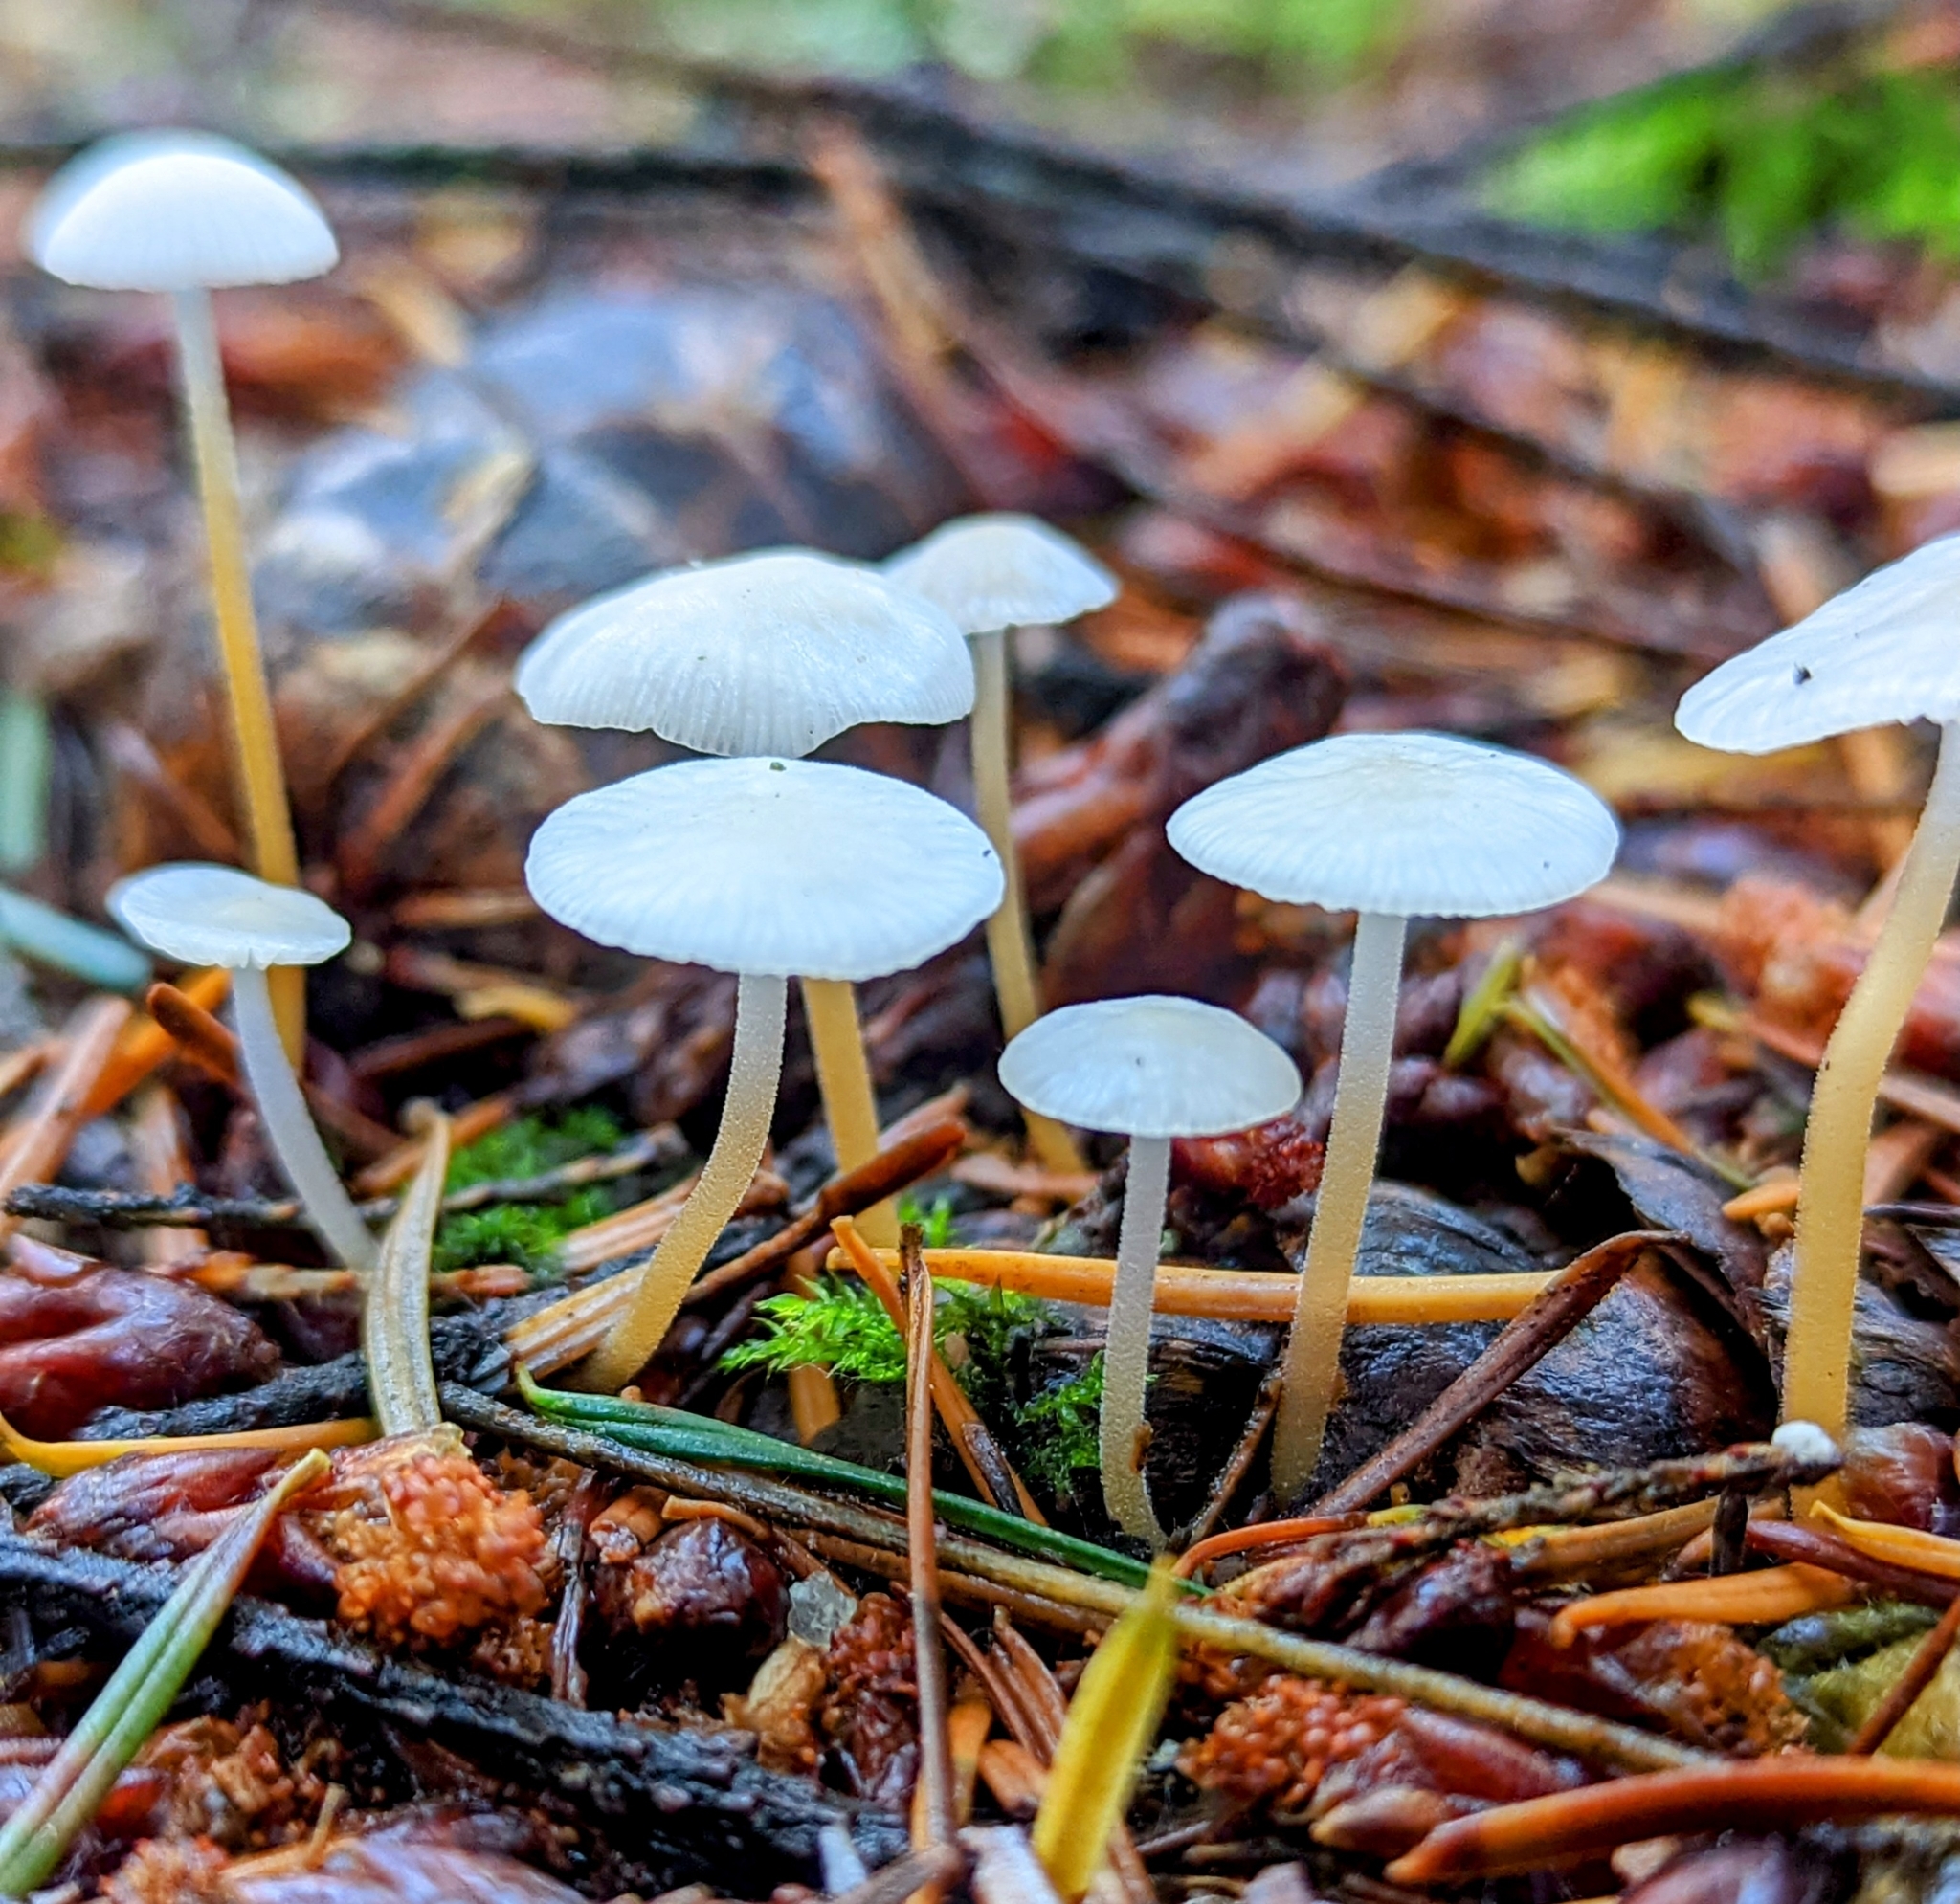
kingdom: Fungi
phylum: Basidiomycota
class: Agaricomycetes
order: Agaricales
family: Physalacriaceae
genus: Strobilurus
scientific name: Strobilurus trullisatus
